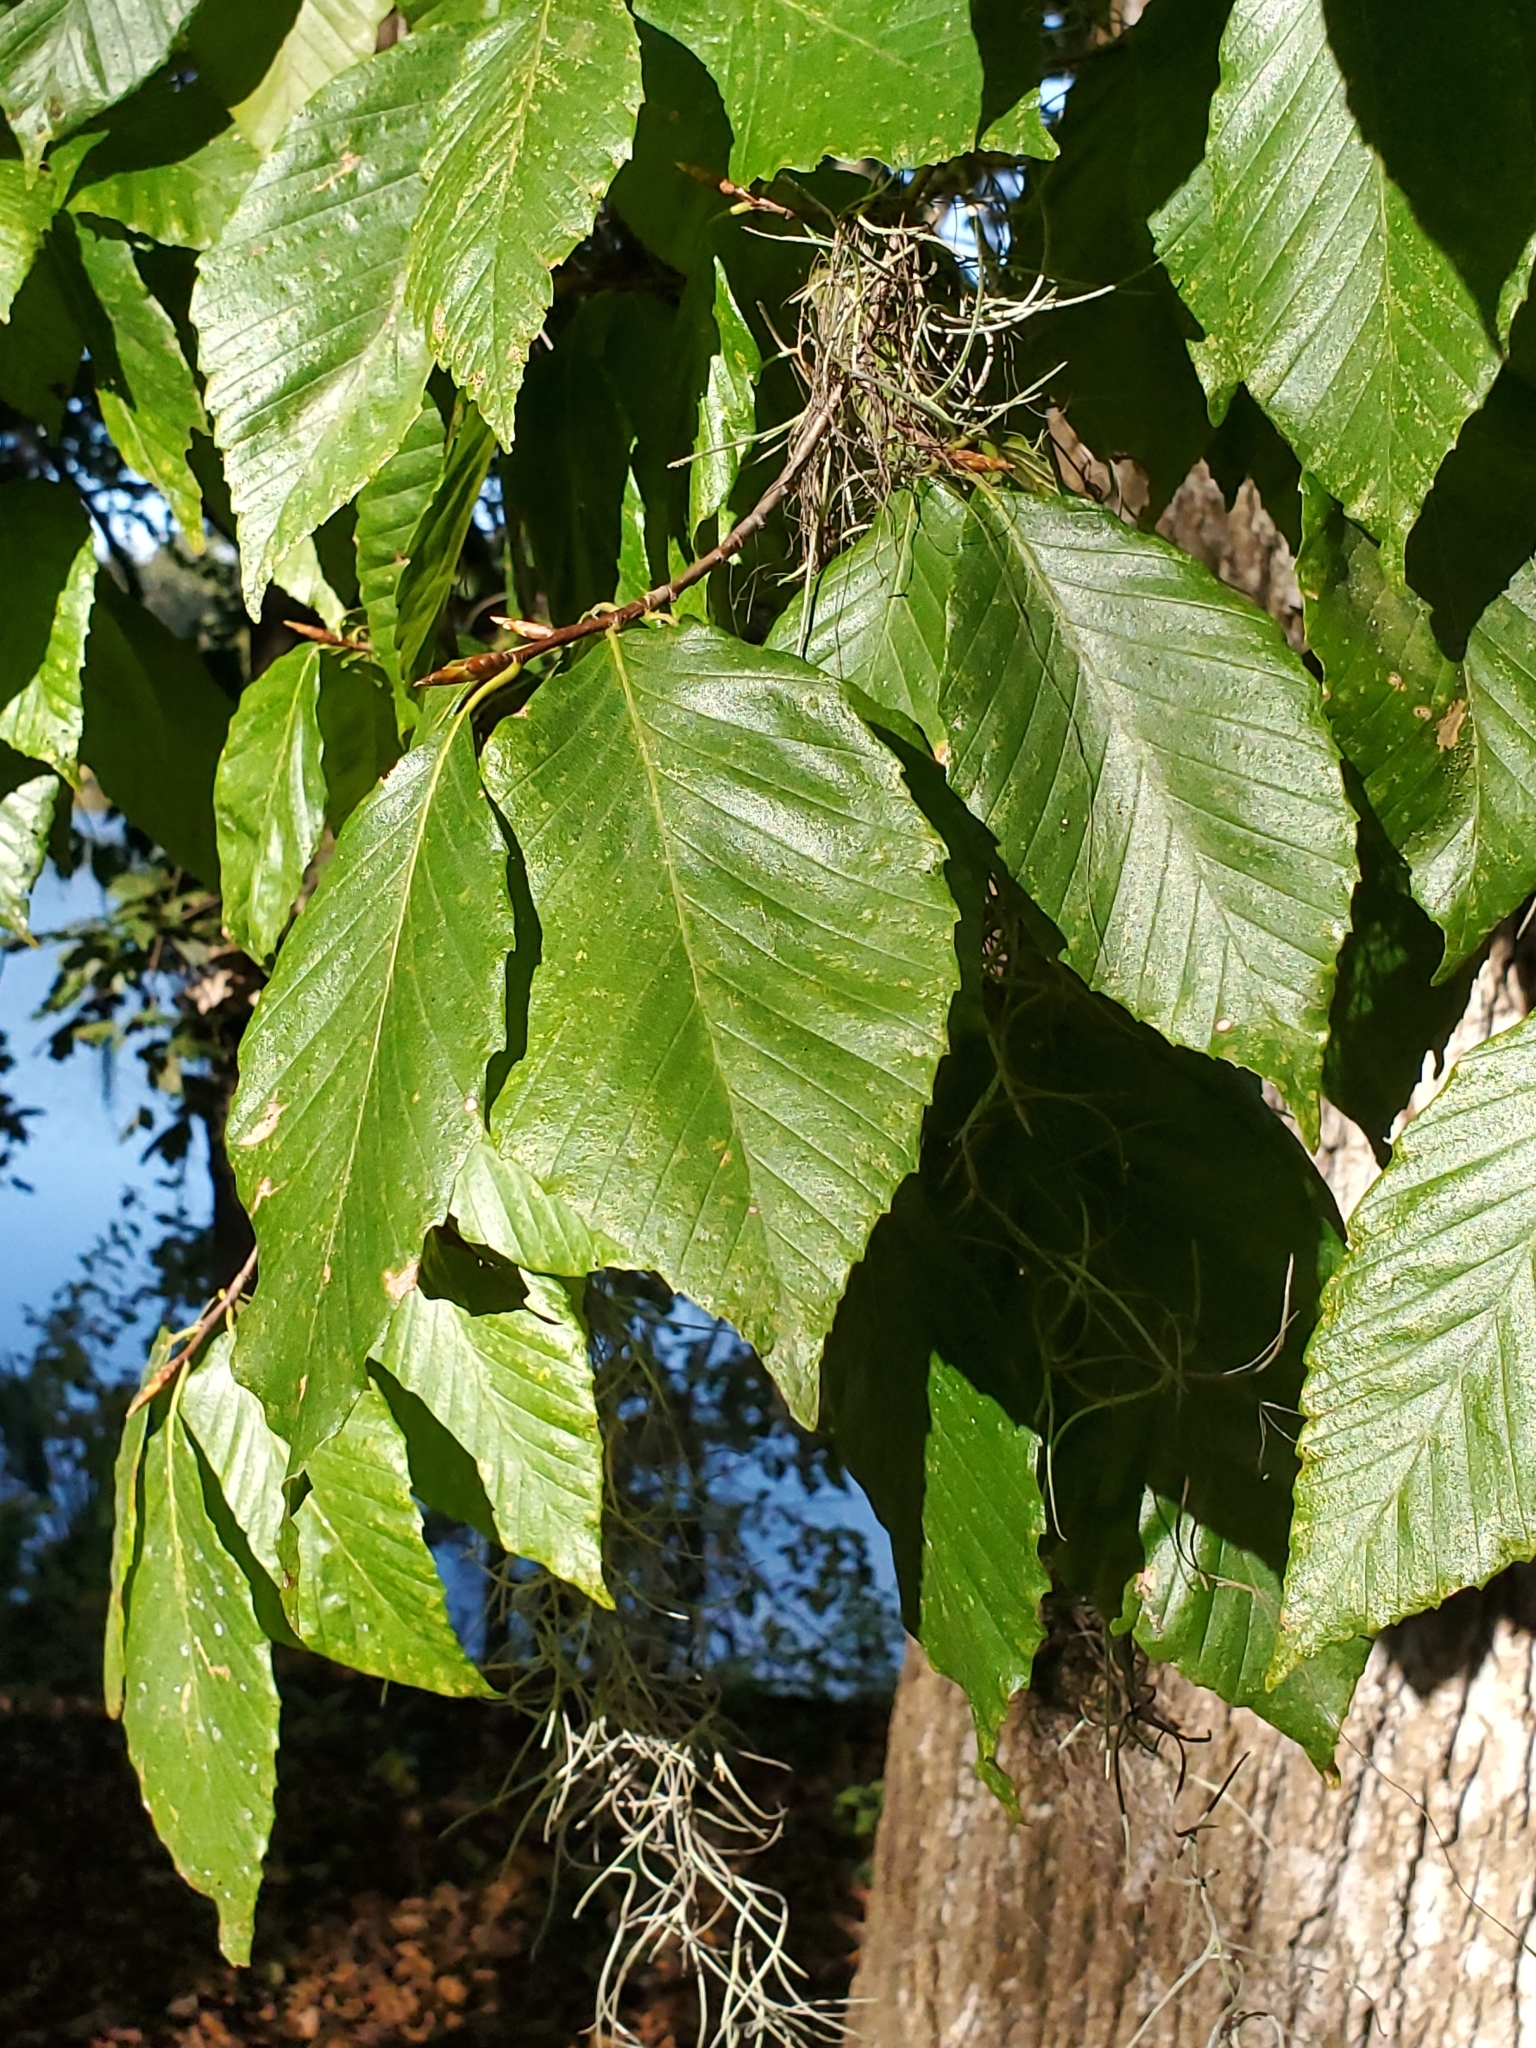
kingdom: Plantae
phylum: Tracheophyta
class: Magnoliopsida
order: Fagales
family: Fagaceae
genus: Fagus
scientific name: Fagus grandifolia
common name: American beech
